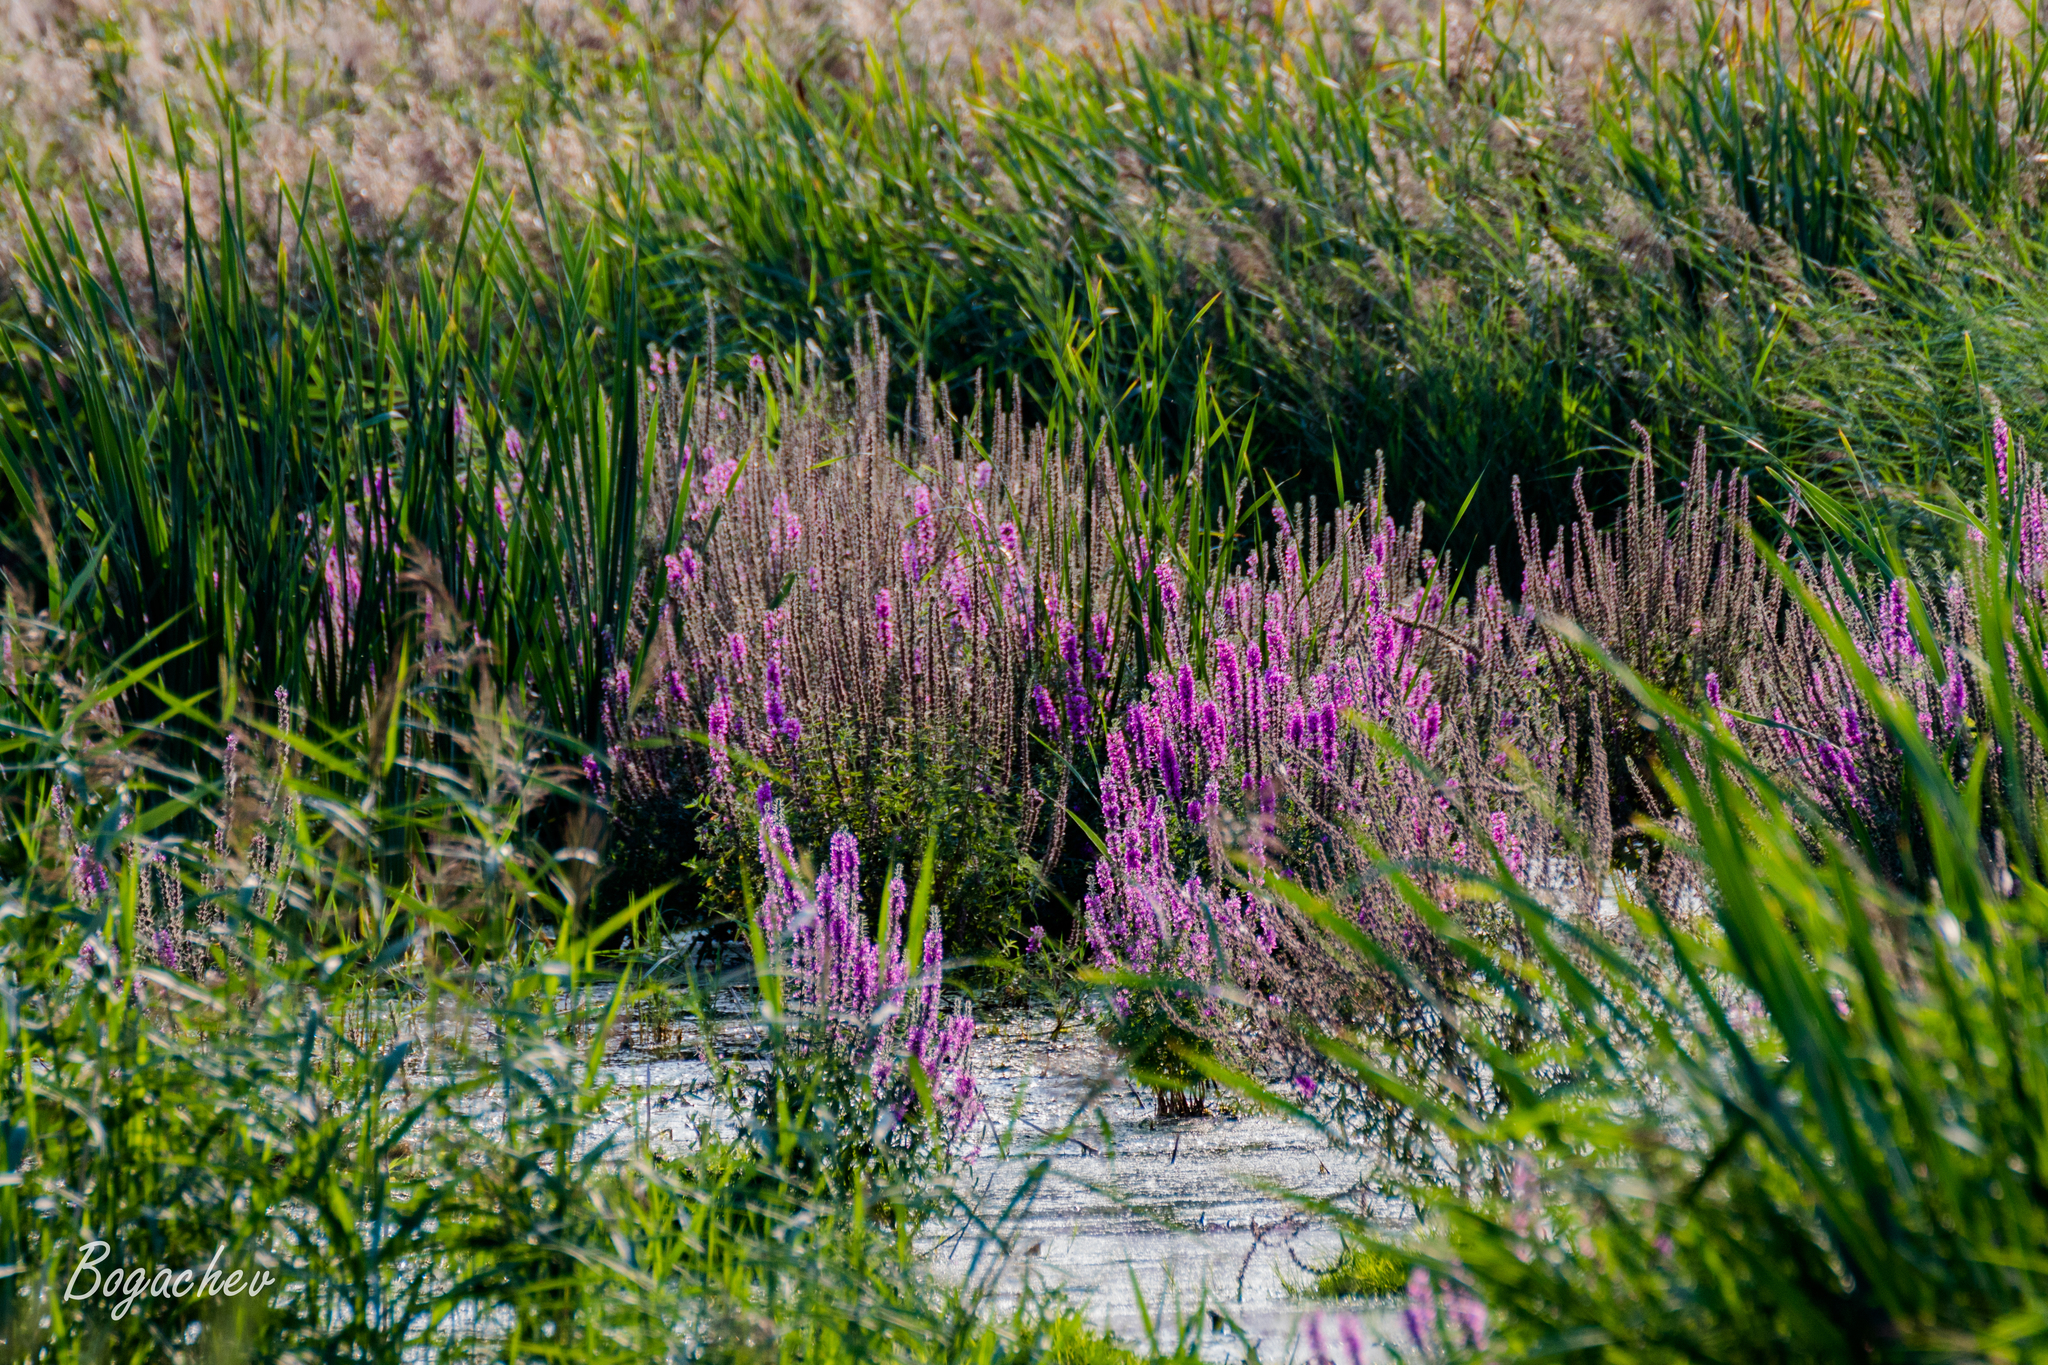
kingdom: Plantae
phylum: Tracheophyta
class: Magnoliopsida
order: Myrtales
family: Lythraceae
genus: Lythrum
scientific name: Lythrum salicaria
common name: Purple loosestrife
